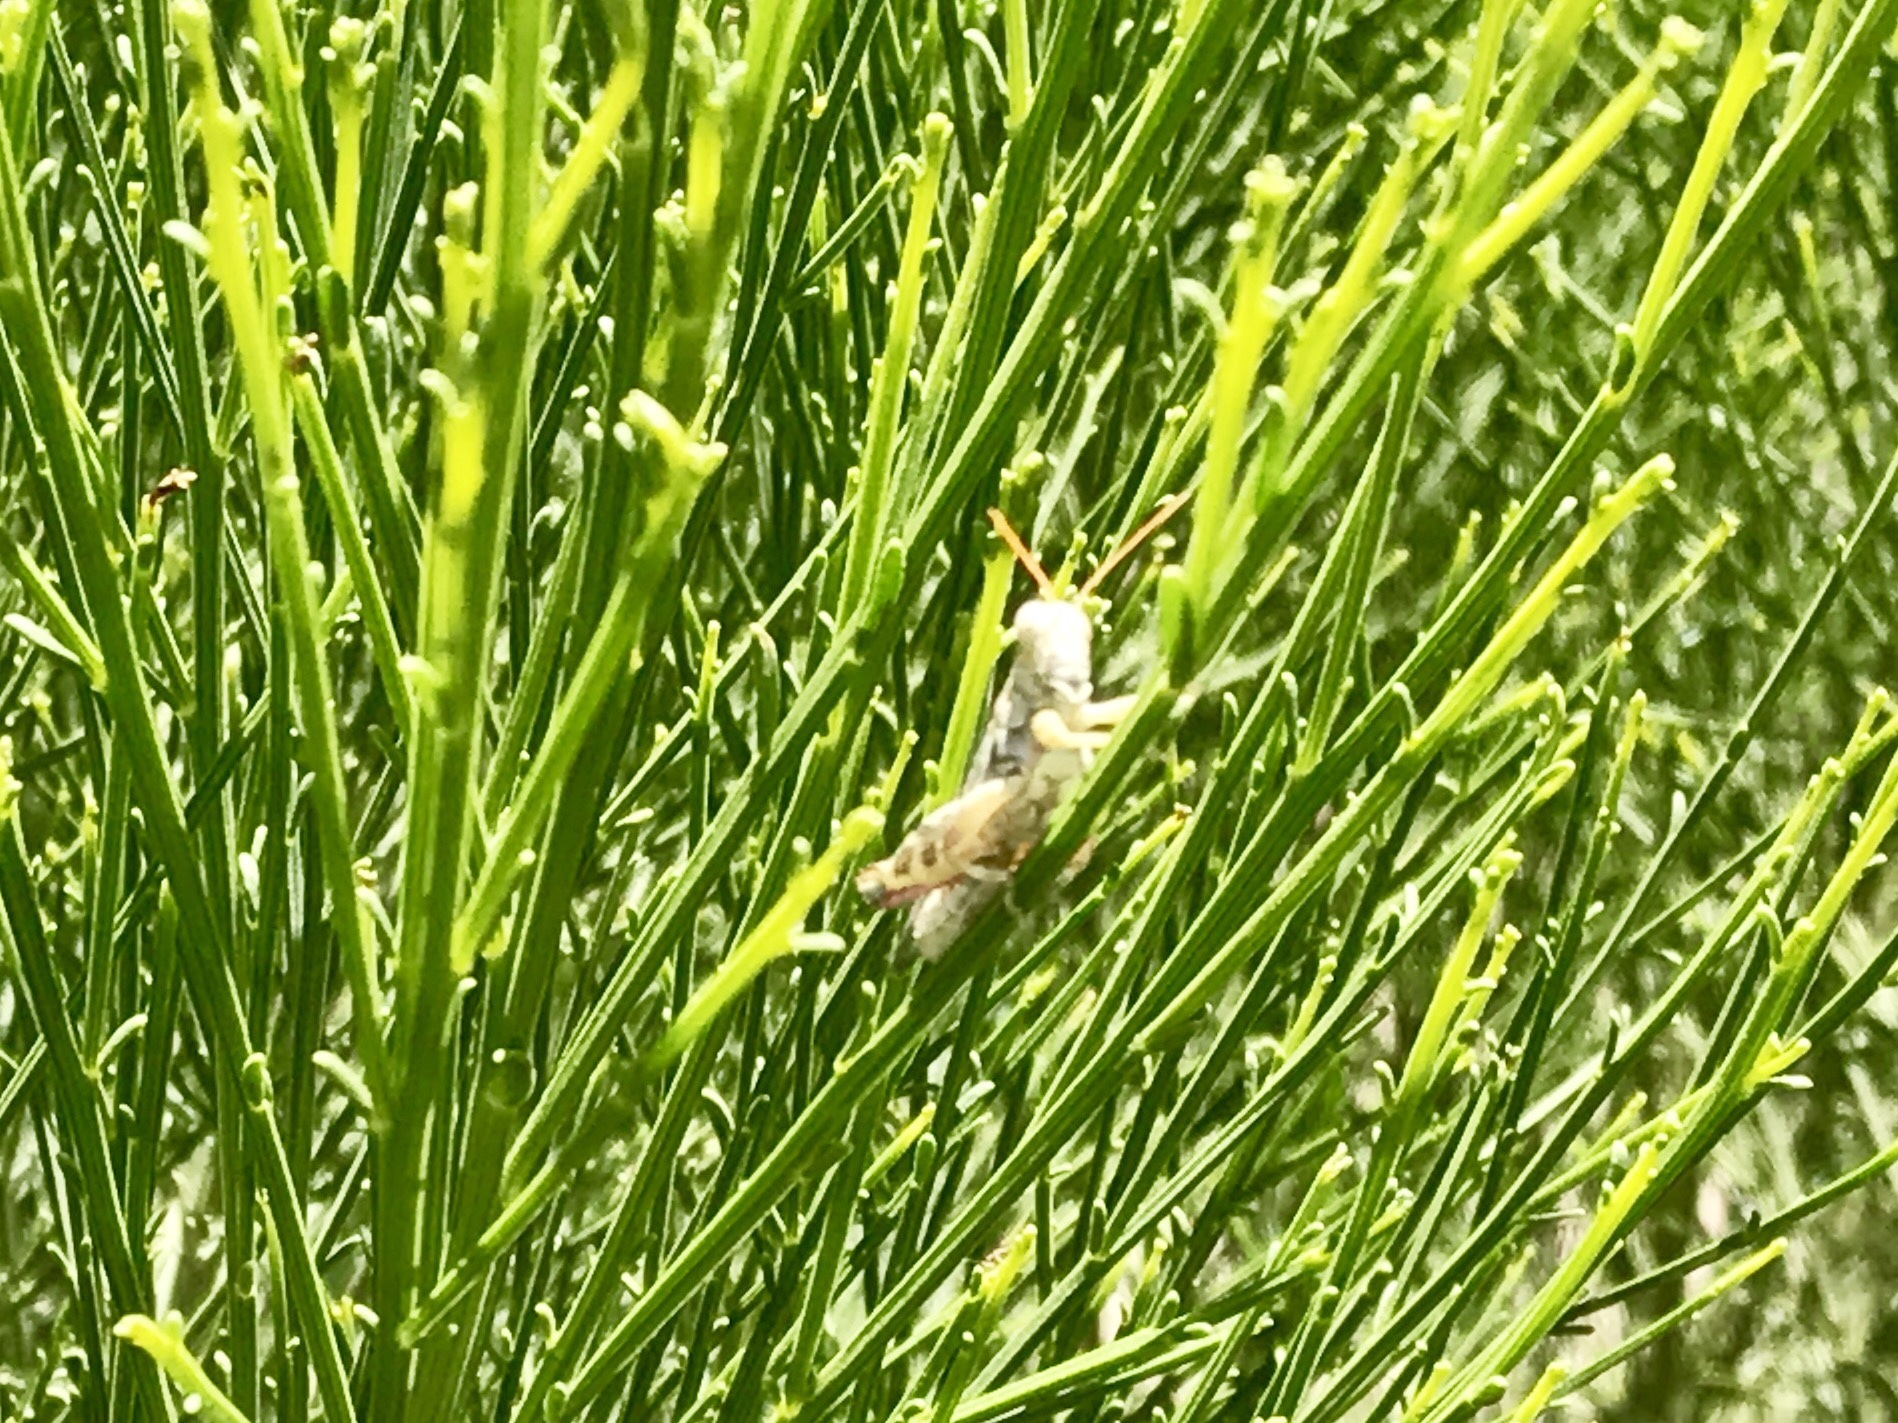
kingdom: Animalia
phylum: Arthropoda
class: Insecta
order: Orthoptera
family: Acrididae
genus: Aeoloplides
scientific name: Aeoloplides tenuipennis
